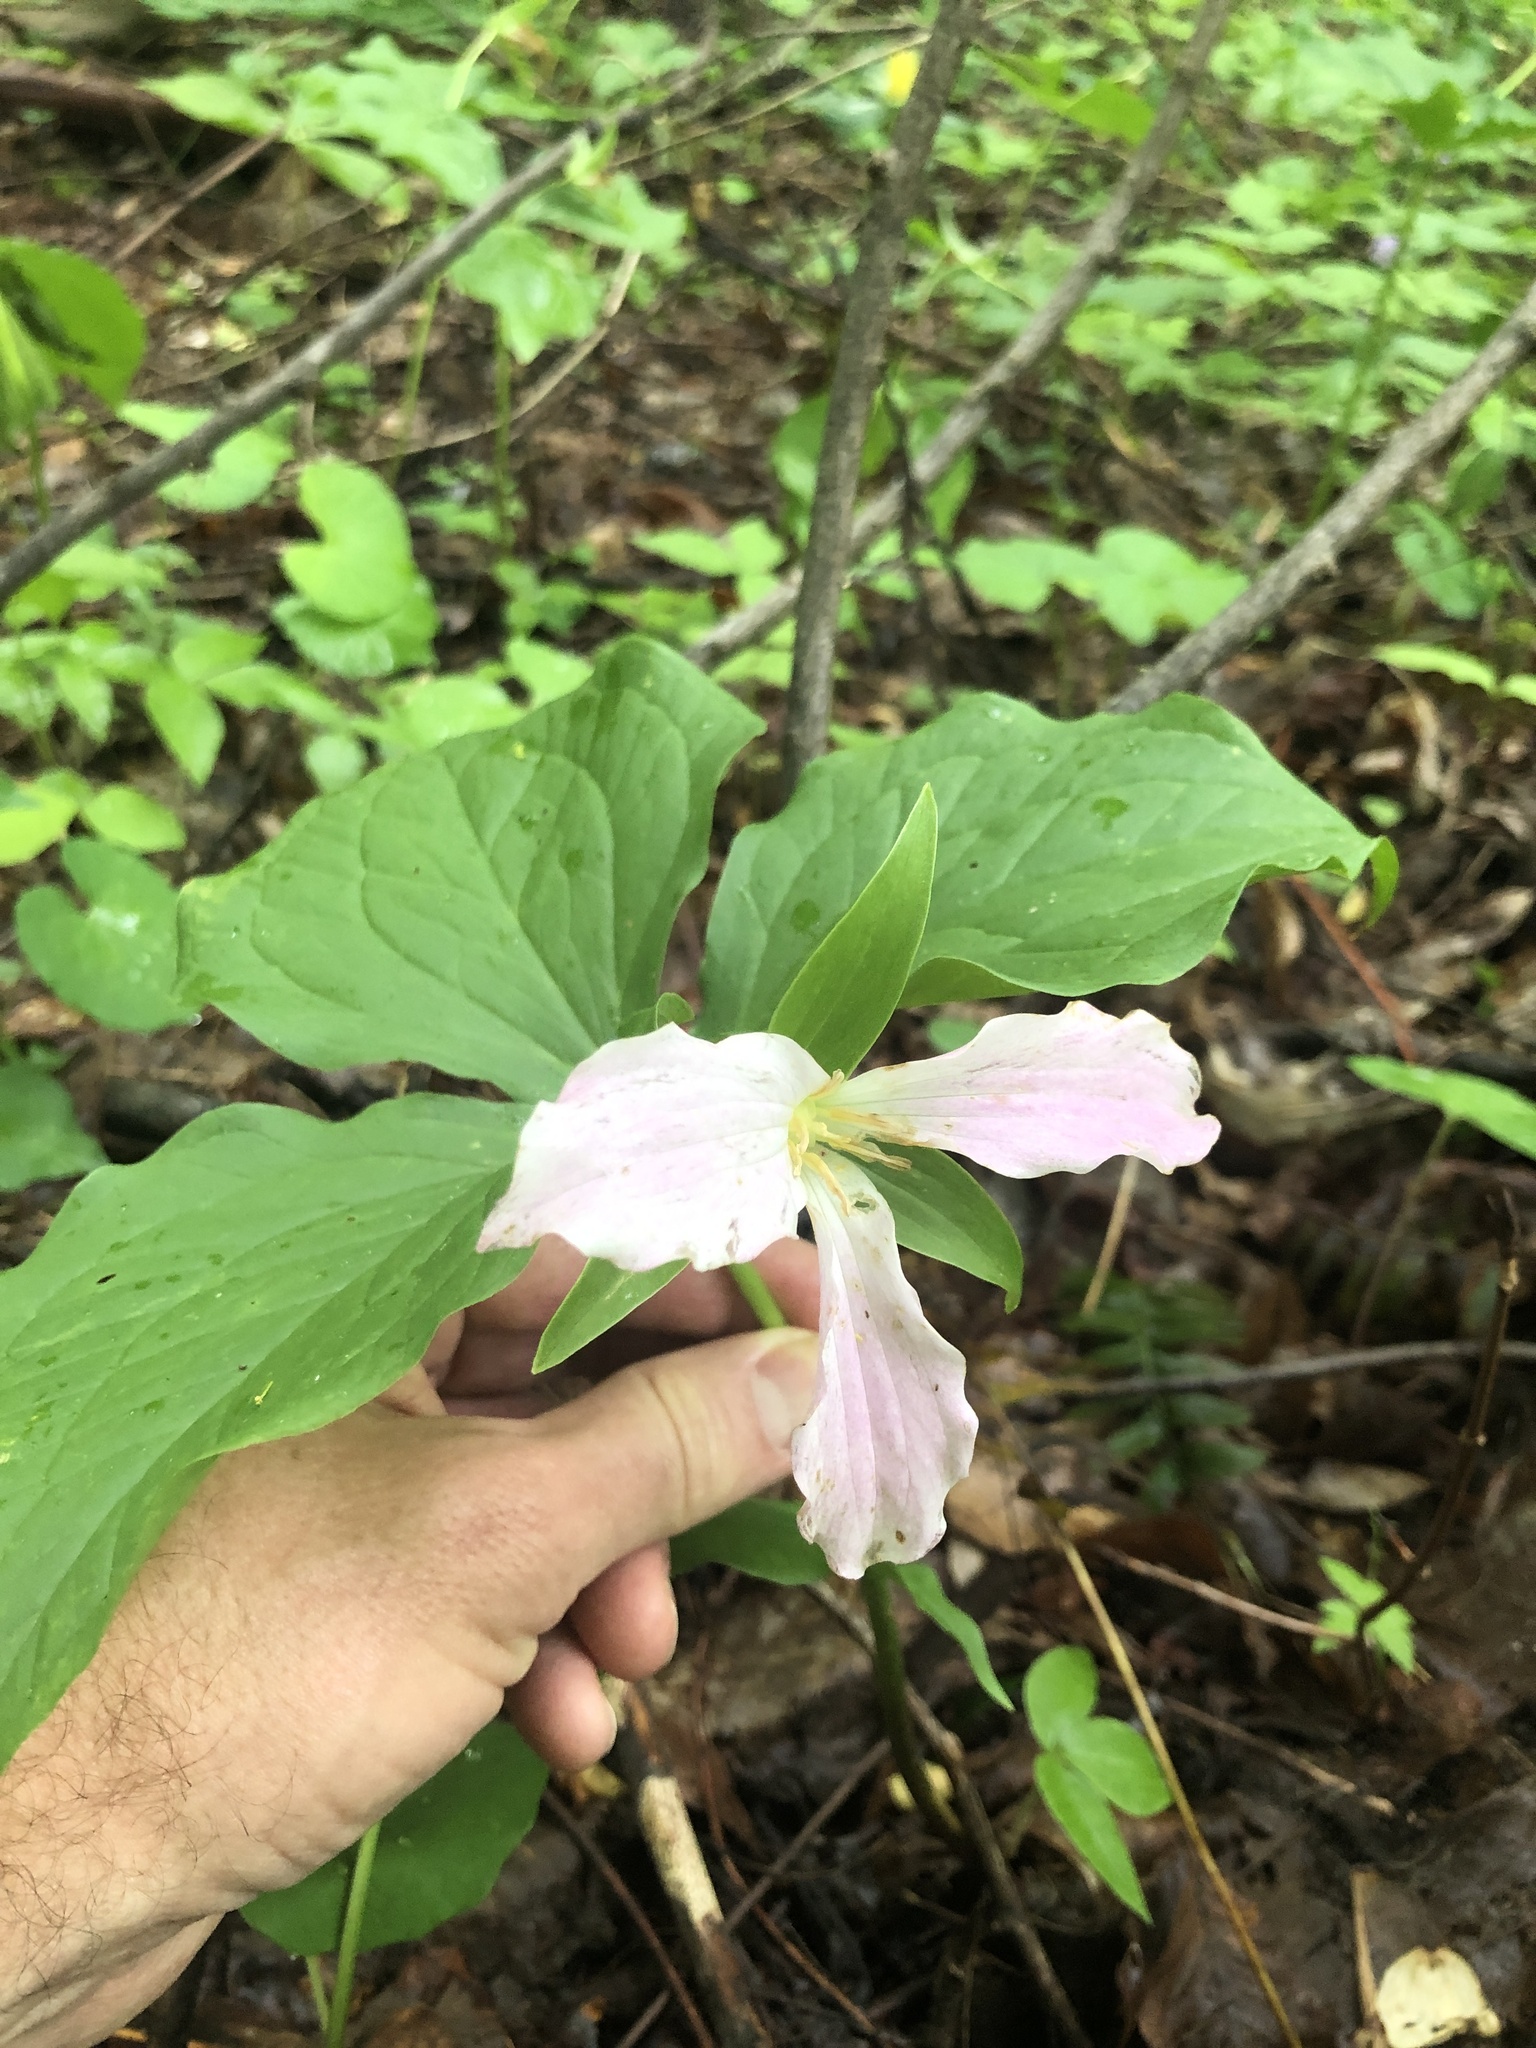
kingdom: Plantae
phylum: Tracheophyta
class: Liliopsida
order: Liliales
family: Melanthiaceae
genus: Trillium
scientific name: Trillium grandiflorum
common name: Great white trillium
